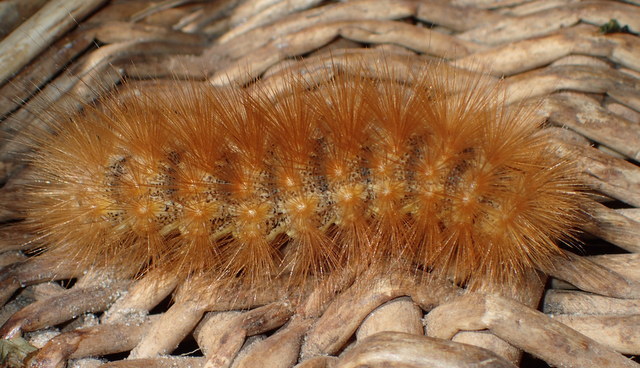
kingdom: Animalia
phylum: Arthropoda
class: Insecta
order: Lepidoptera
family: Erebidae
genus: Estigmene
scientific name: Estigmene acrea
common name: Salt marsh moth
